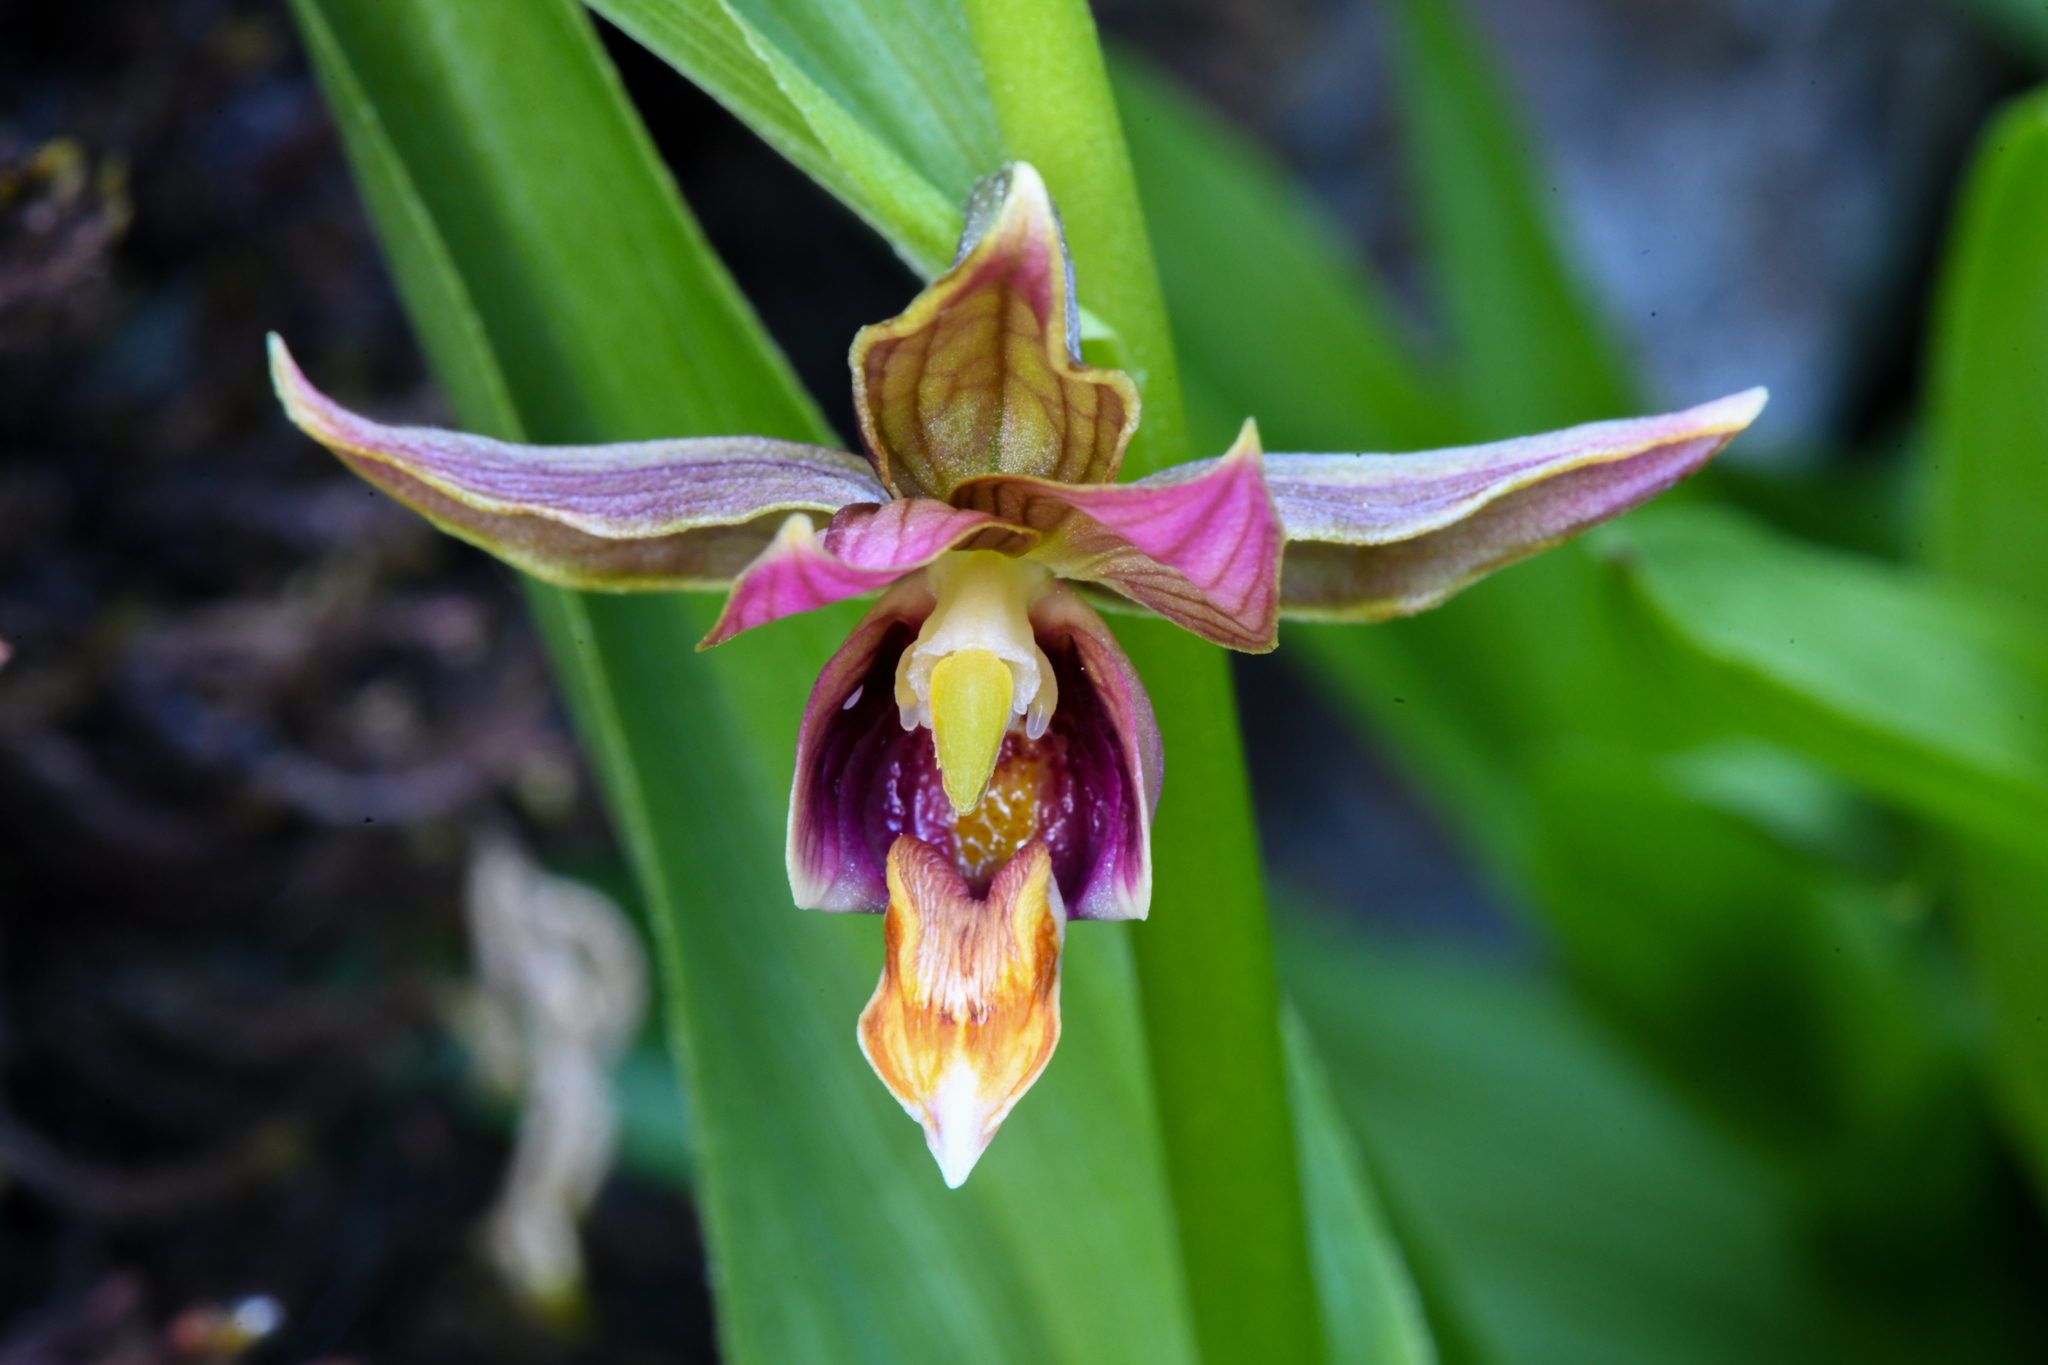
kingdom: Plantae
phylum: Tracheophyta
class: Liliopsida
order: Asparagales
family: Orchidaceae
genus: Epipactis
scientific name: Epipactis gigantea
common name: Chatterbox
